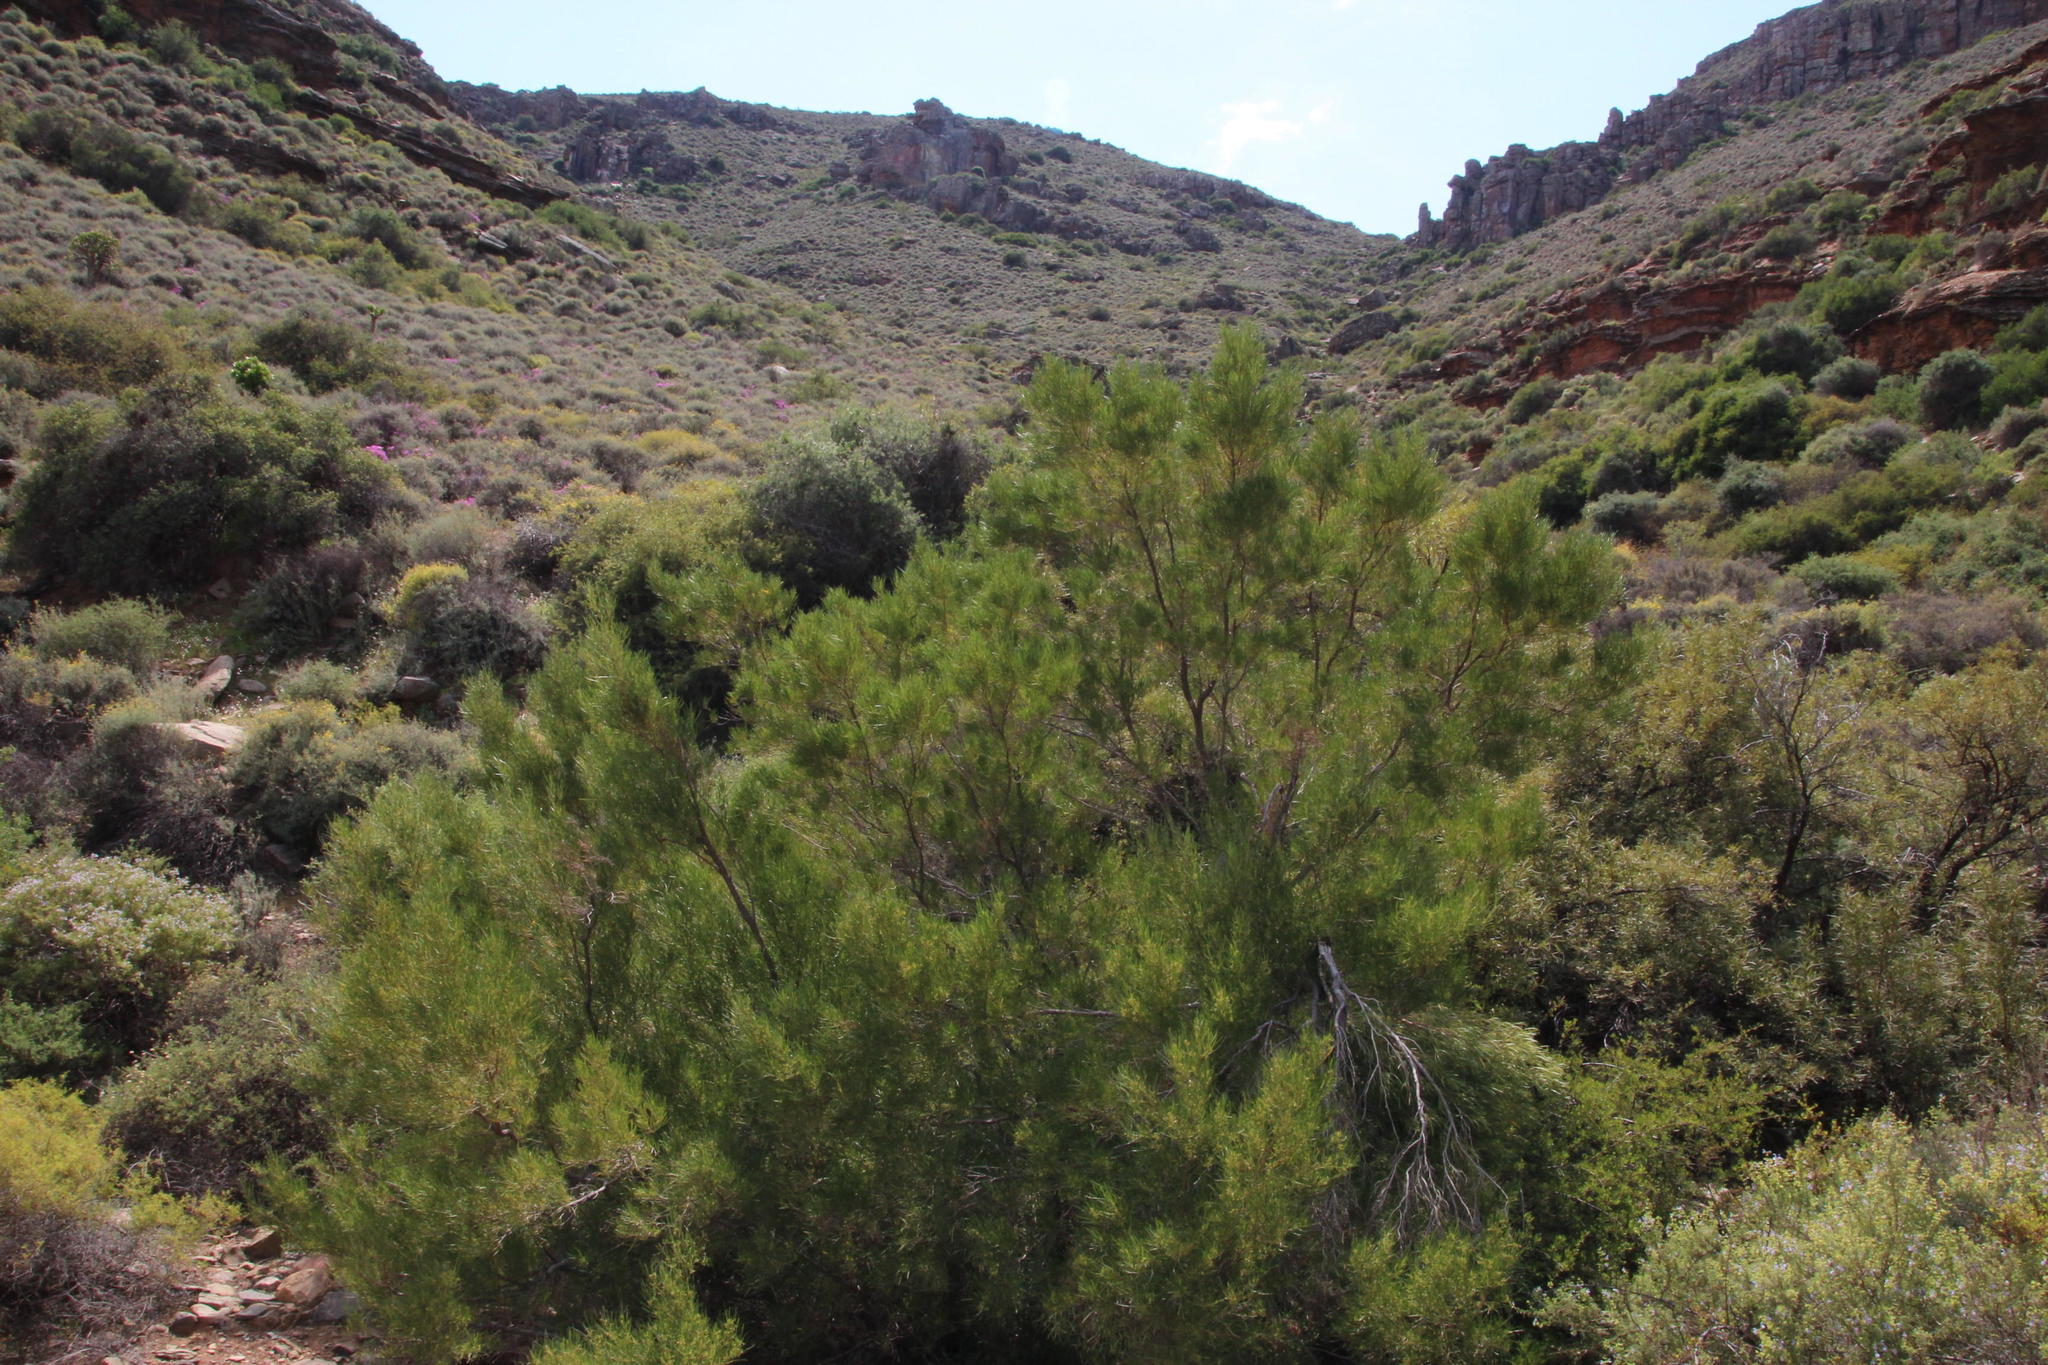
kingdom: Plantae
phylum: Tracheophyta
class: Magnoliopsida
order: Sapindales
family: Sapindaceae
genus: Dodonaea
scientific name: Dodonaea viscosa
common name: Hopbush
